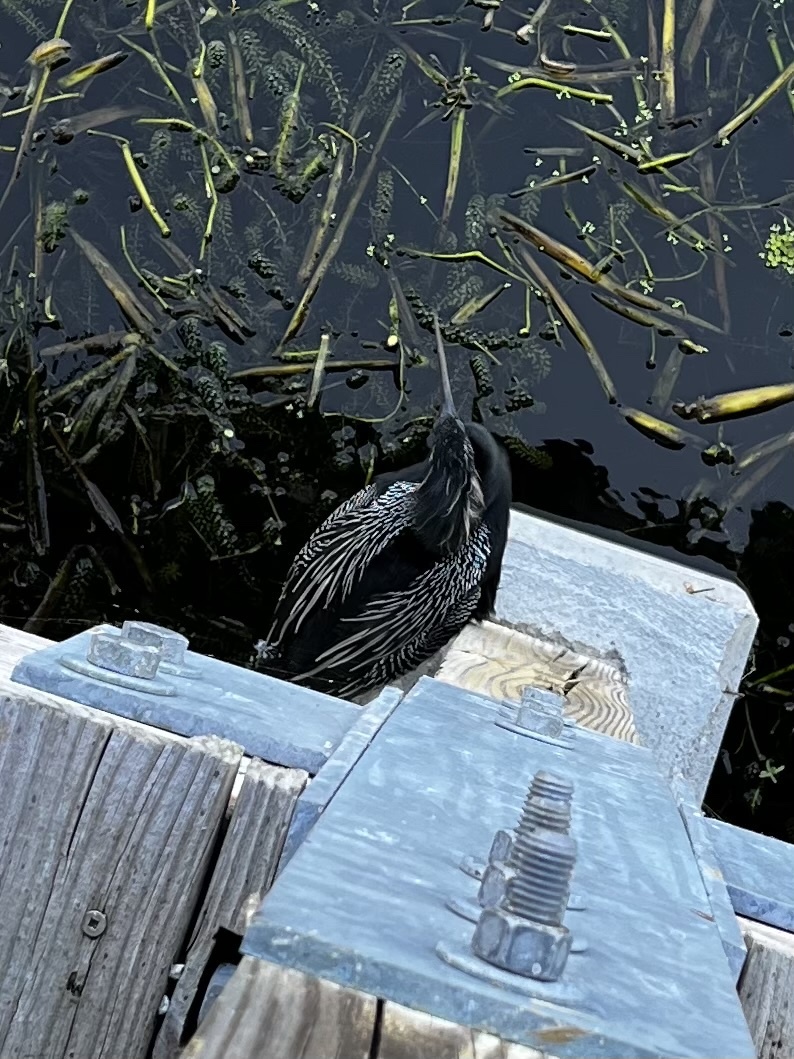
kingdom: Animalia
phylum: Chordata
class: Aves
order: Suliformes
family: Anhingidae
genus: Anhinga
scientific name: Anhinga anhinga
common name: Anhinga
